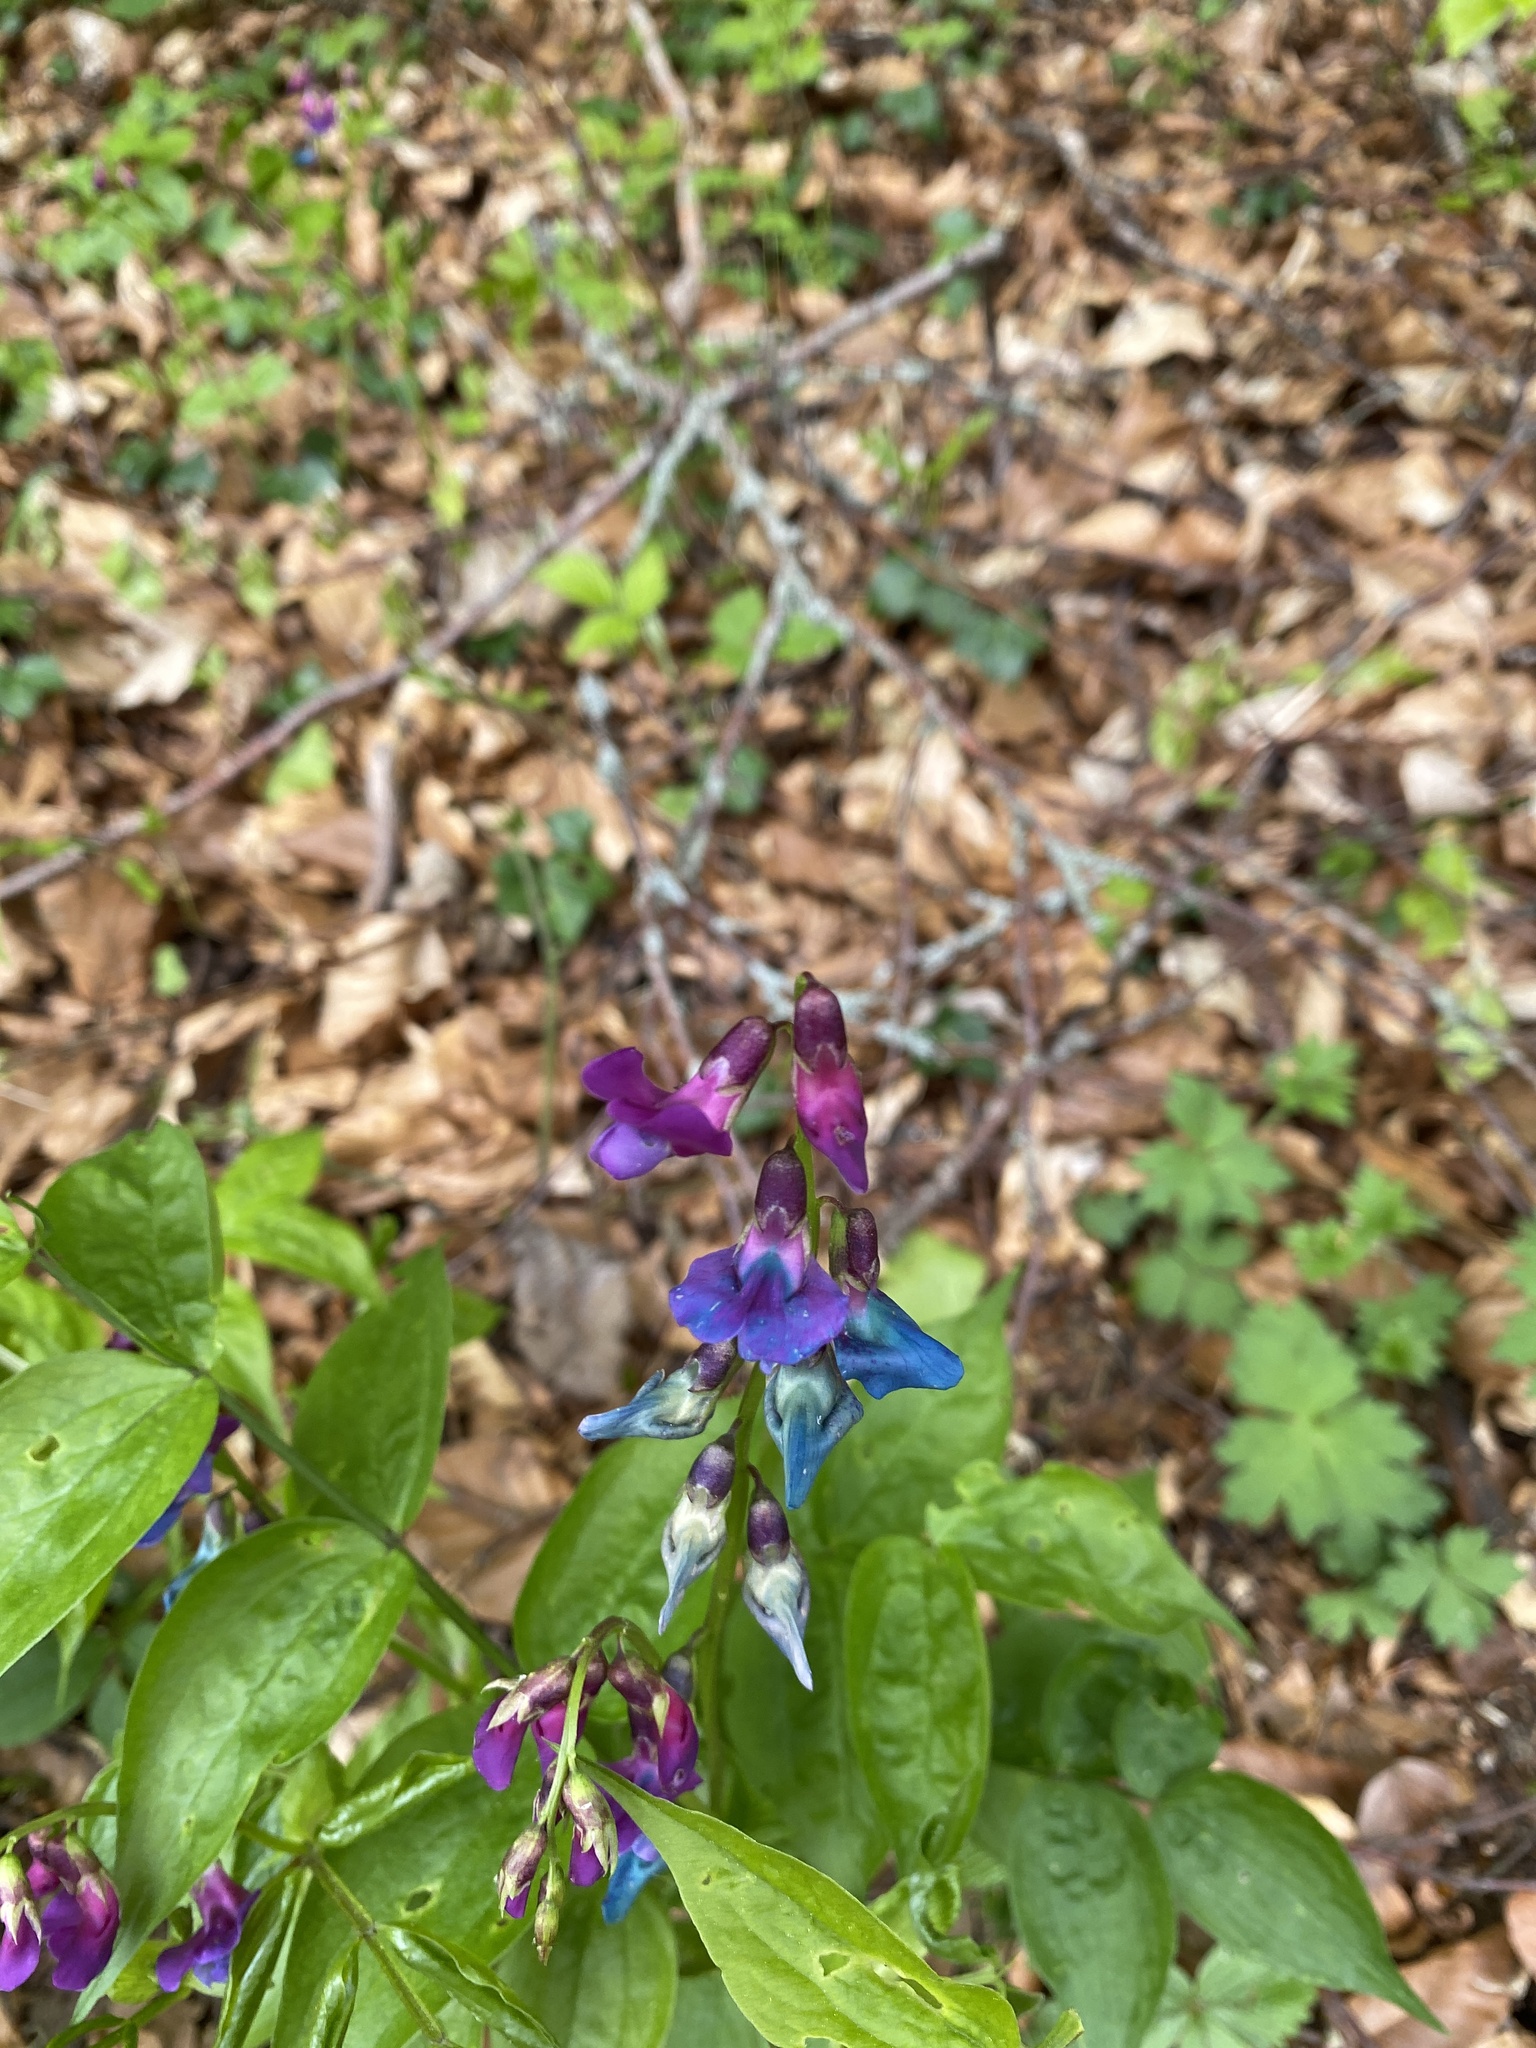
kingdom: Plantae
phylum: Tracheophyta
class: Magnoliopsida
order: Fabales
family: Fabaceae
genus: Lathyrus
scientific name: Lathyrus vernus
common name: Spring pea
